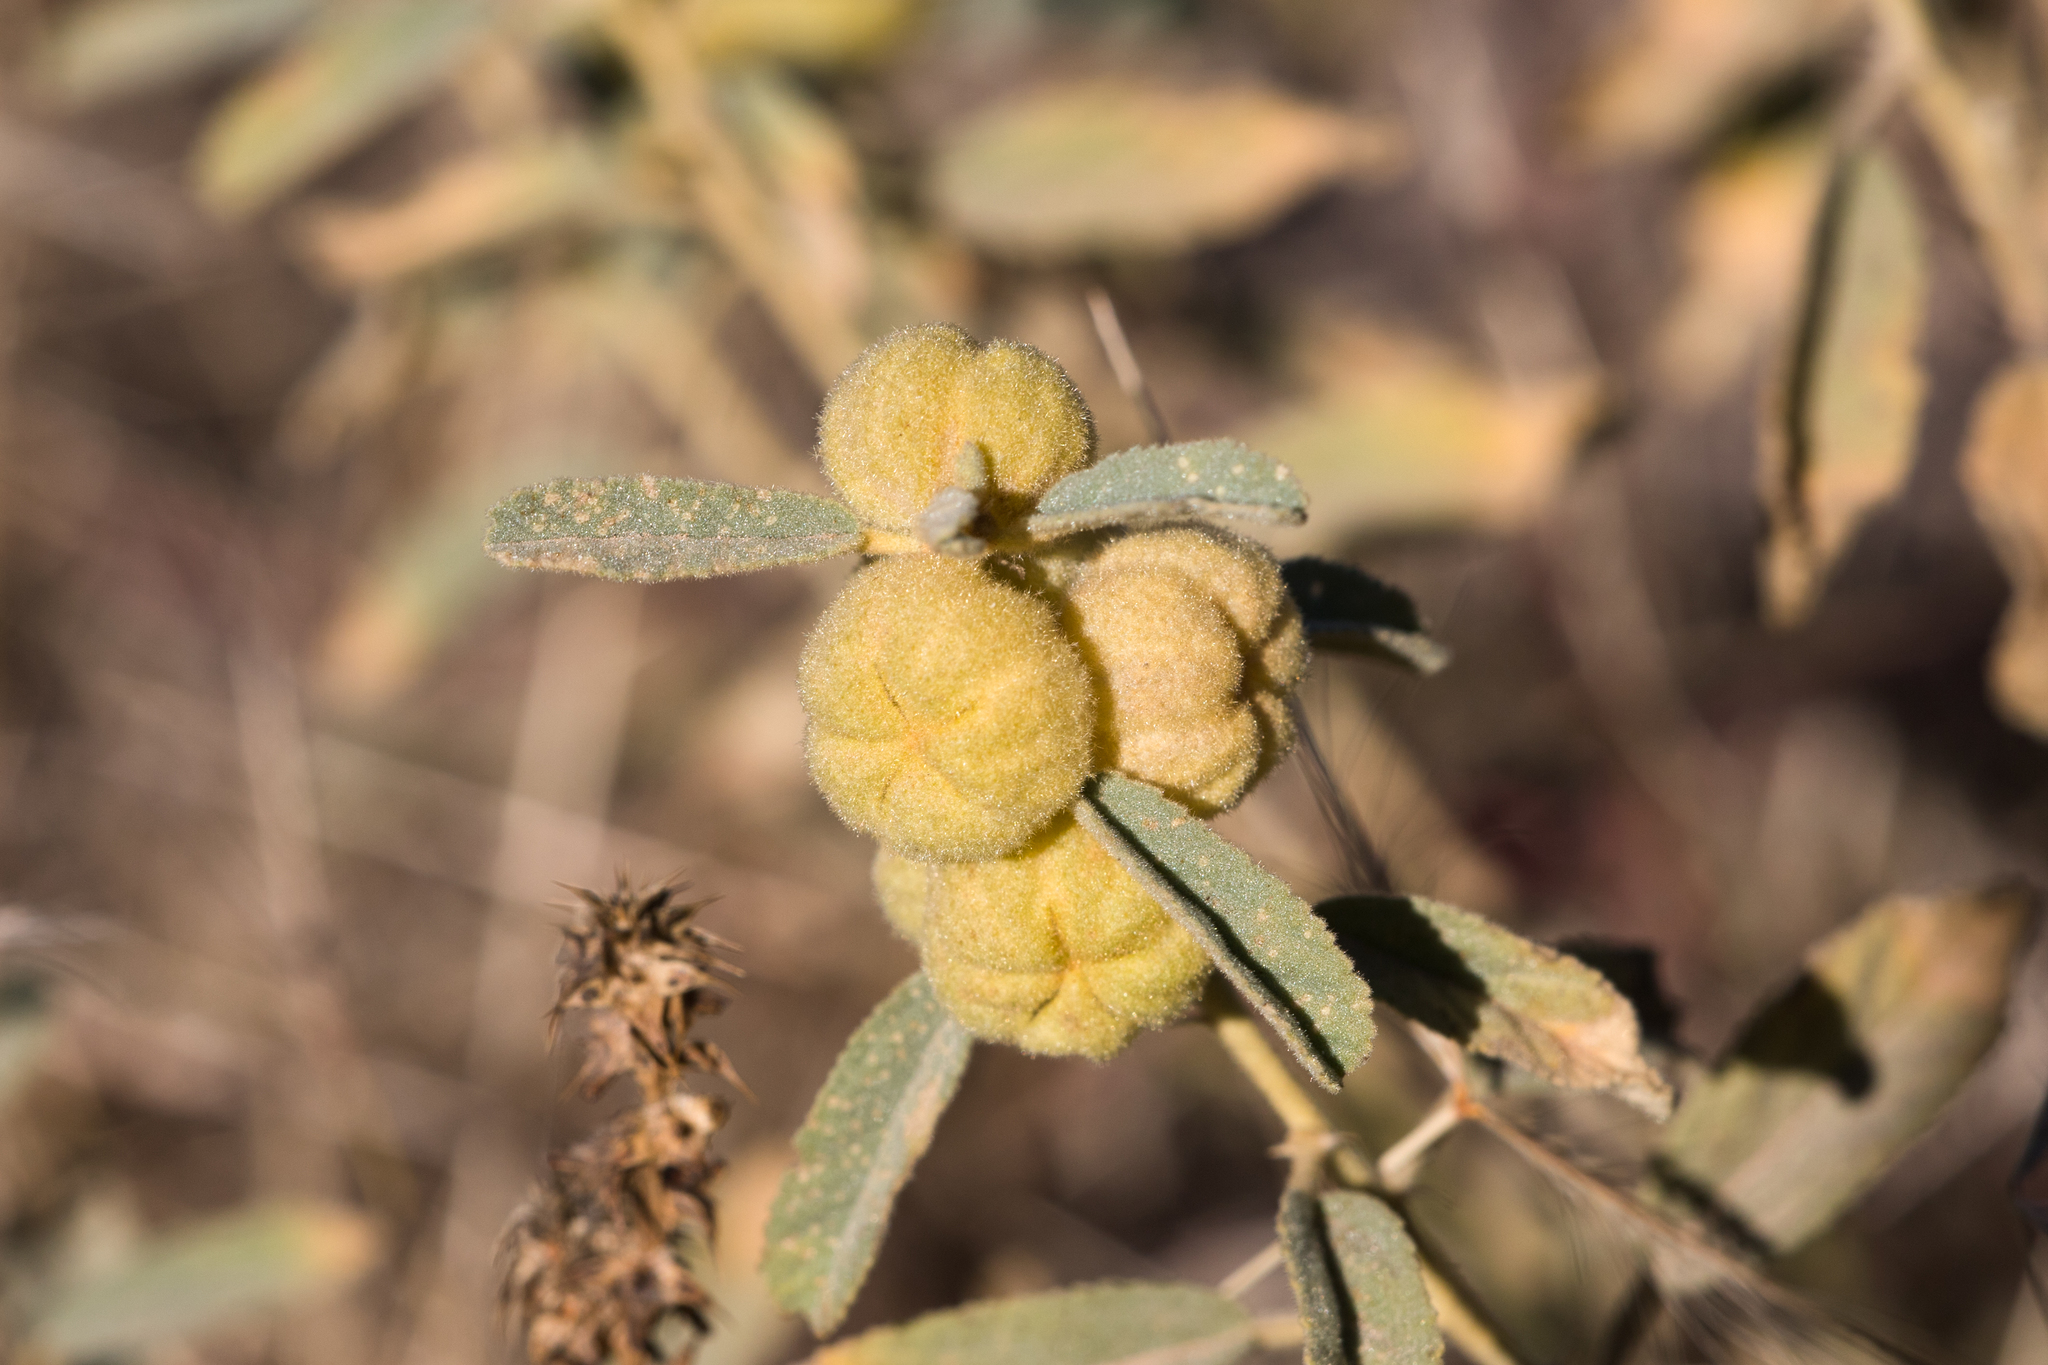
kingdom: Plantae
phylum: Tracheophyta
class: Magnoliopsida
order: Malvales
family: Malvaceae
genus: Sida
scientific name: Sida cleisocalyx
